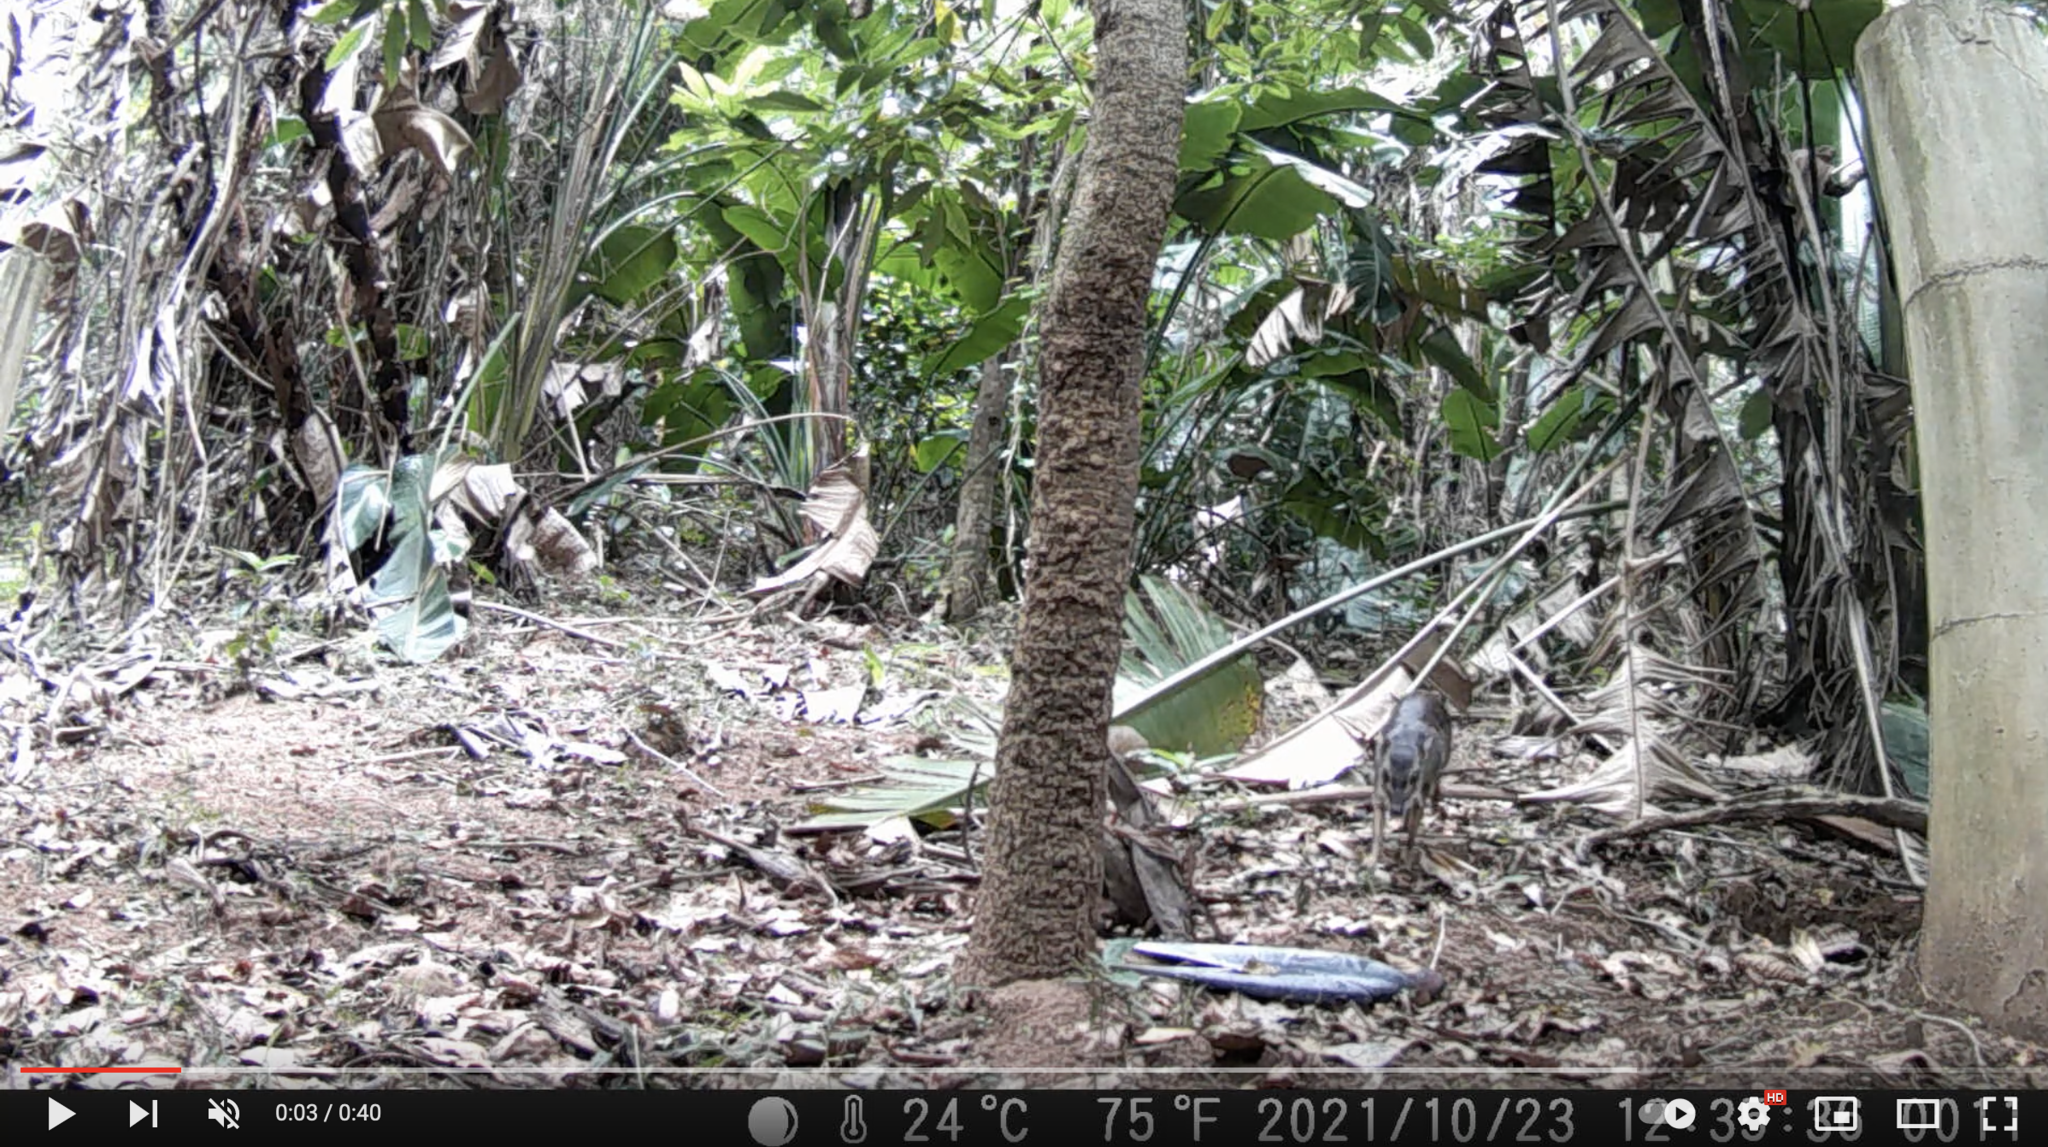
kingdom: Animalia
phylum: Chordata
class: Mammalia
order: Artiodactyla
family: Bovidae
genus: Philantomba
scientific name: Philantomba monticola
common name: Blue duiker
